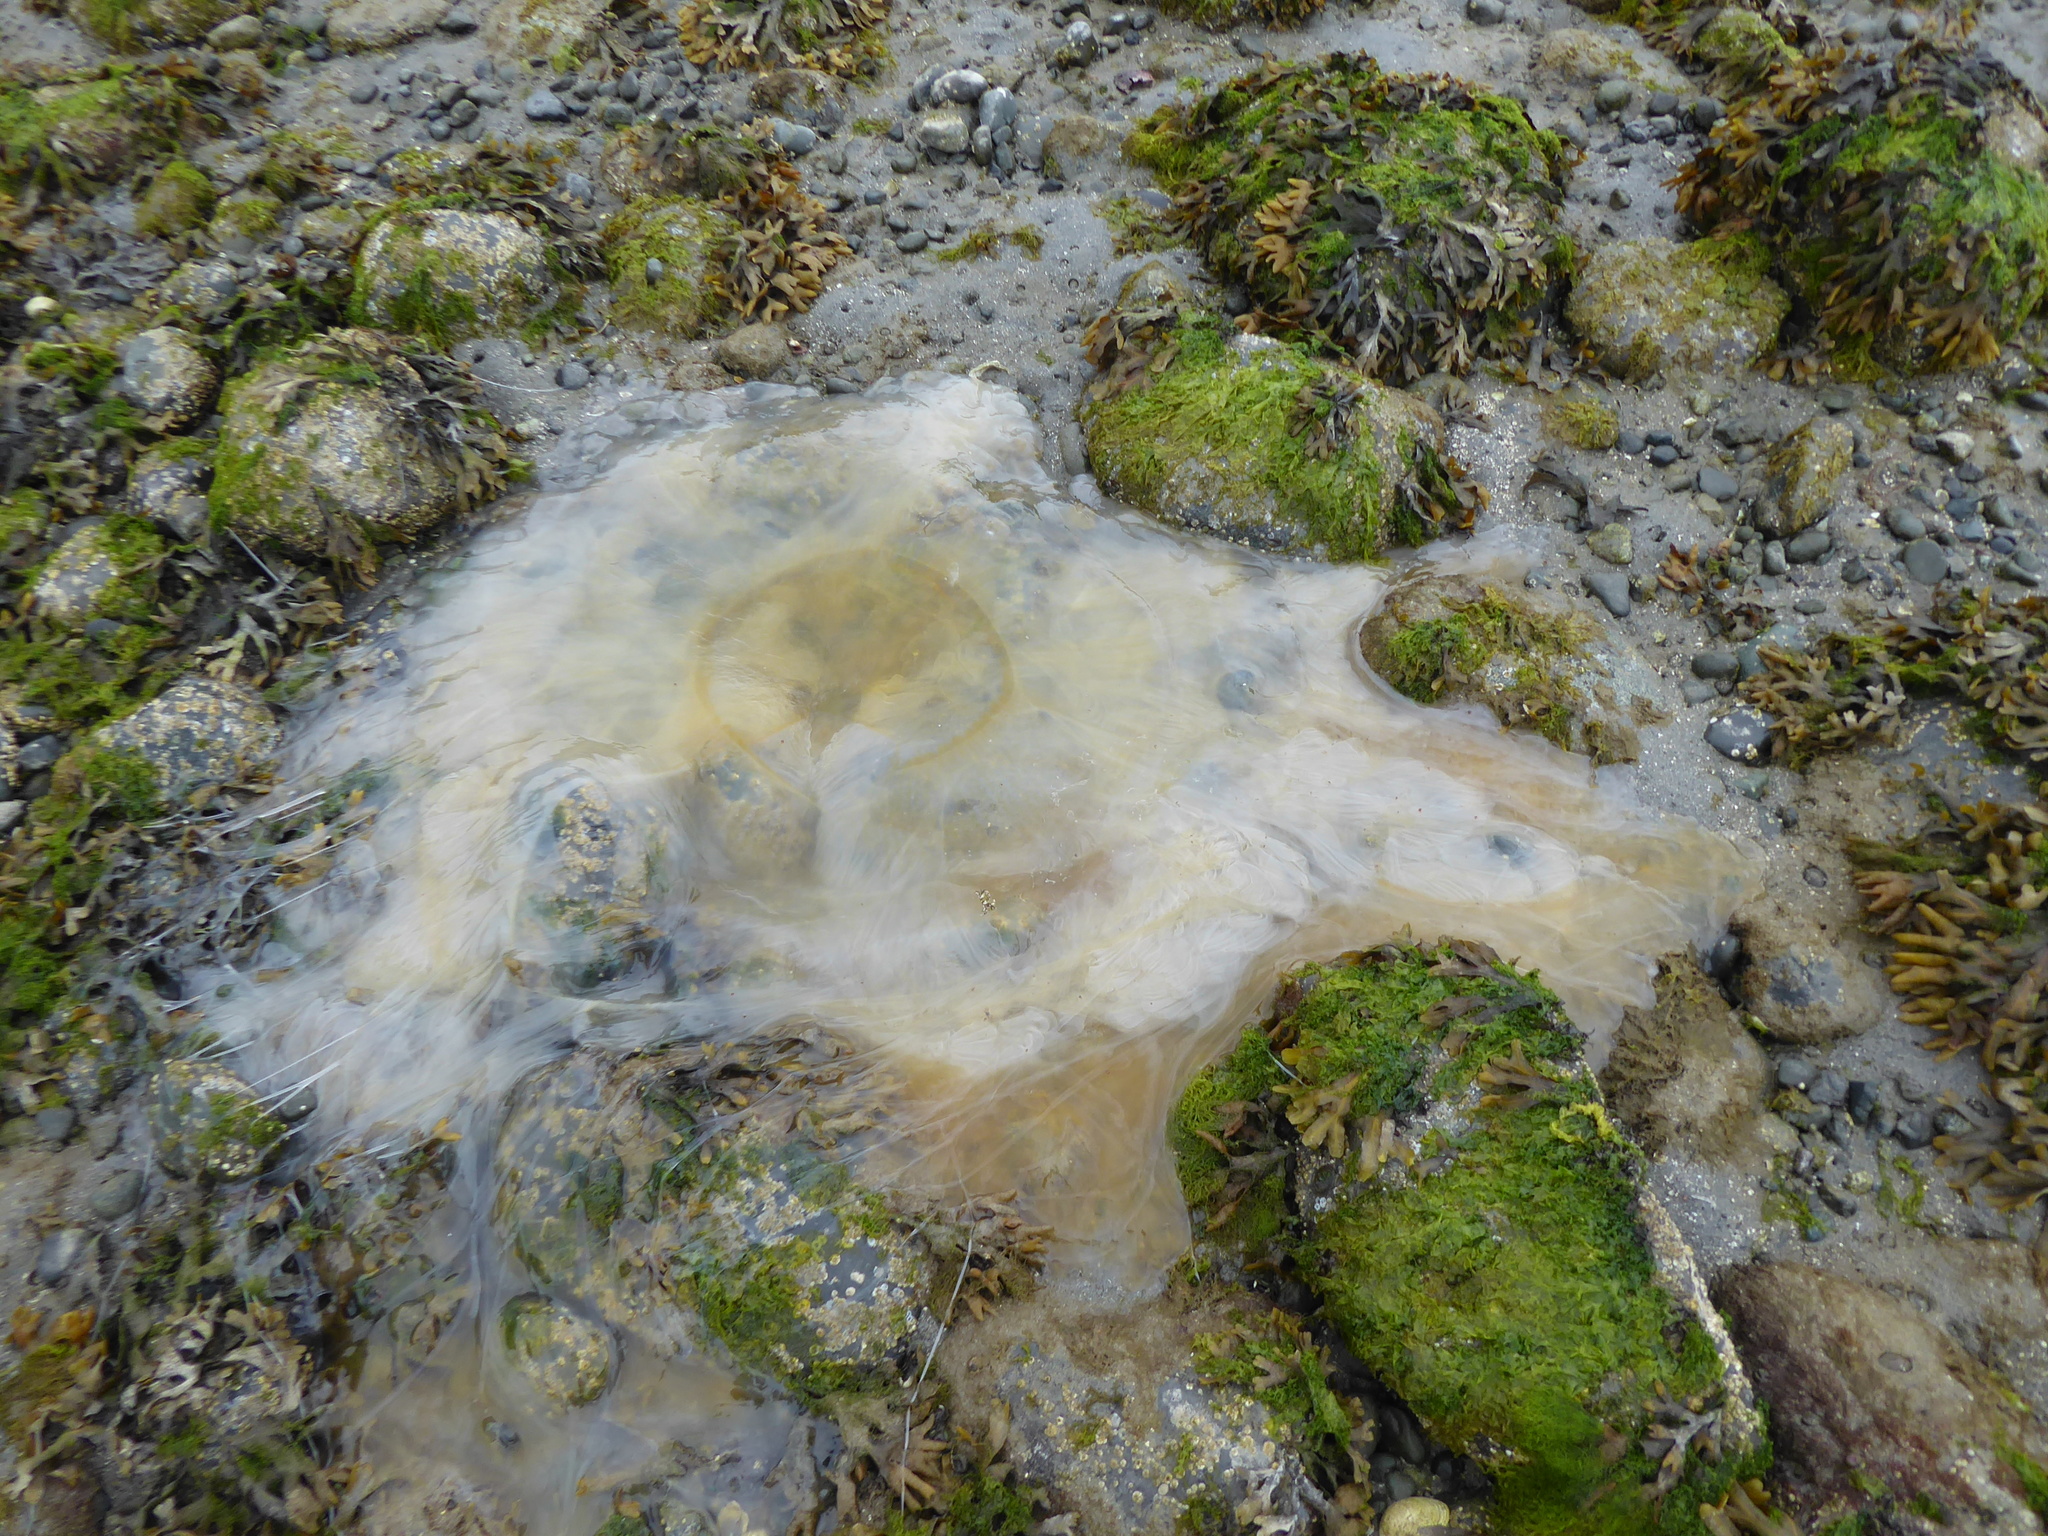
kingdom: Animalia
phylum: Cnidaria
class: Scyphozoa
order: Semaeostomeae
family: Phacellophoridae
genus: Phacellophora
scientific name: Phacellophora camtschatica
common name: Fried-egg jellyfish
